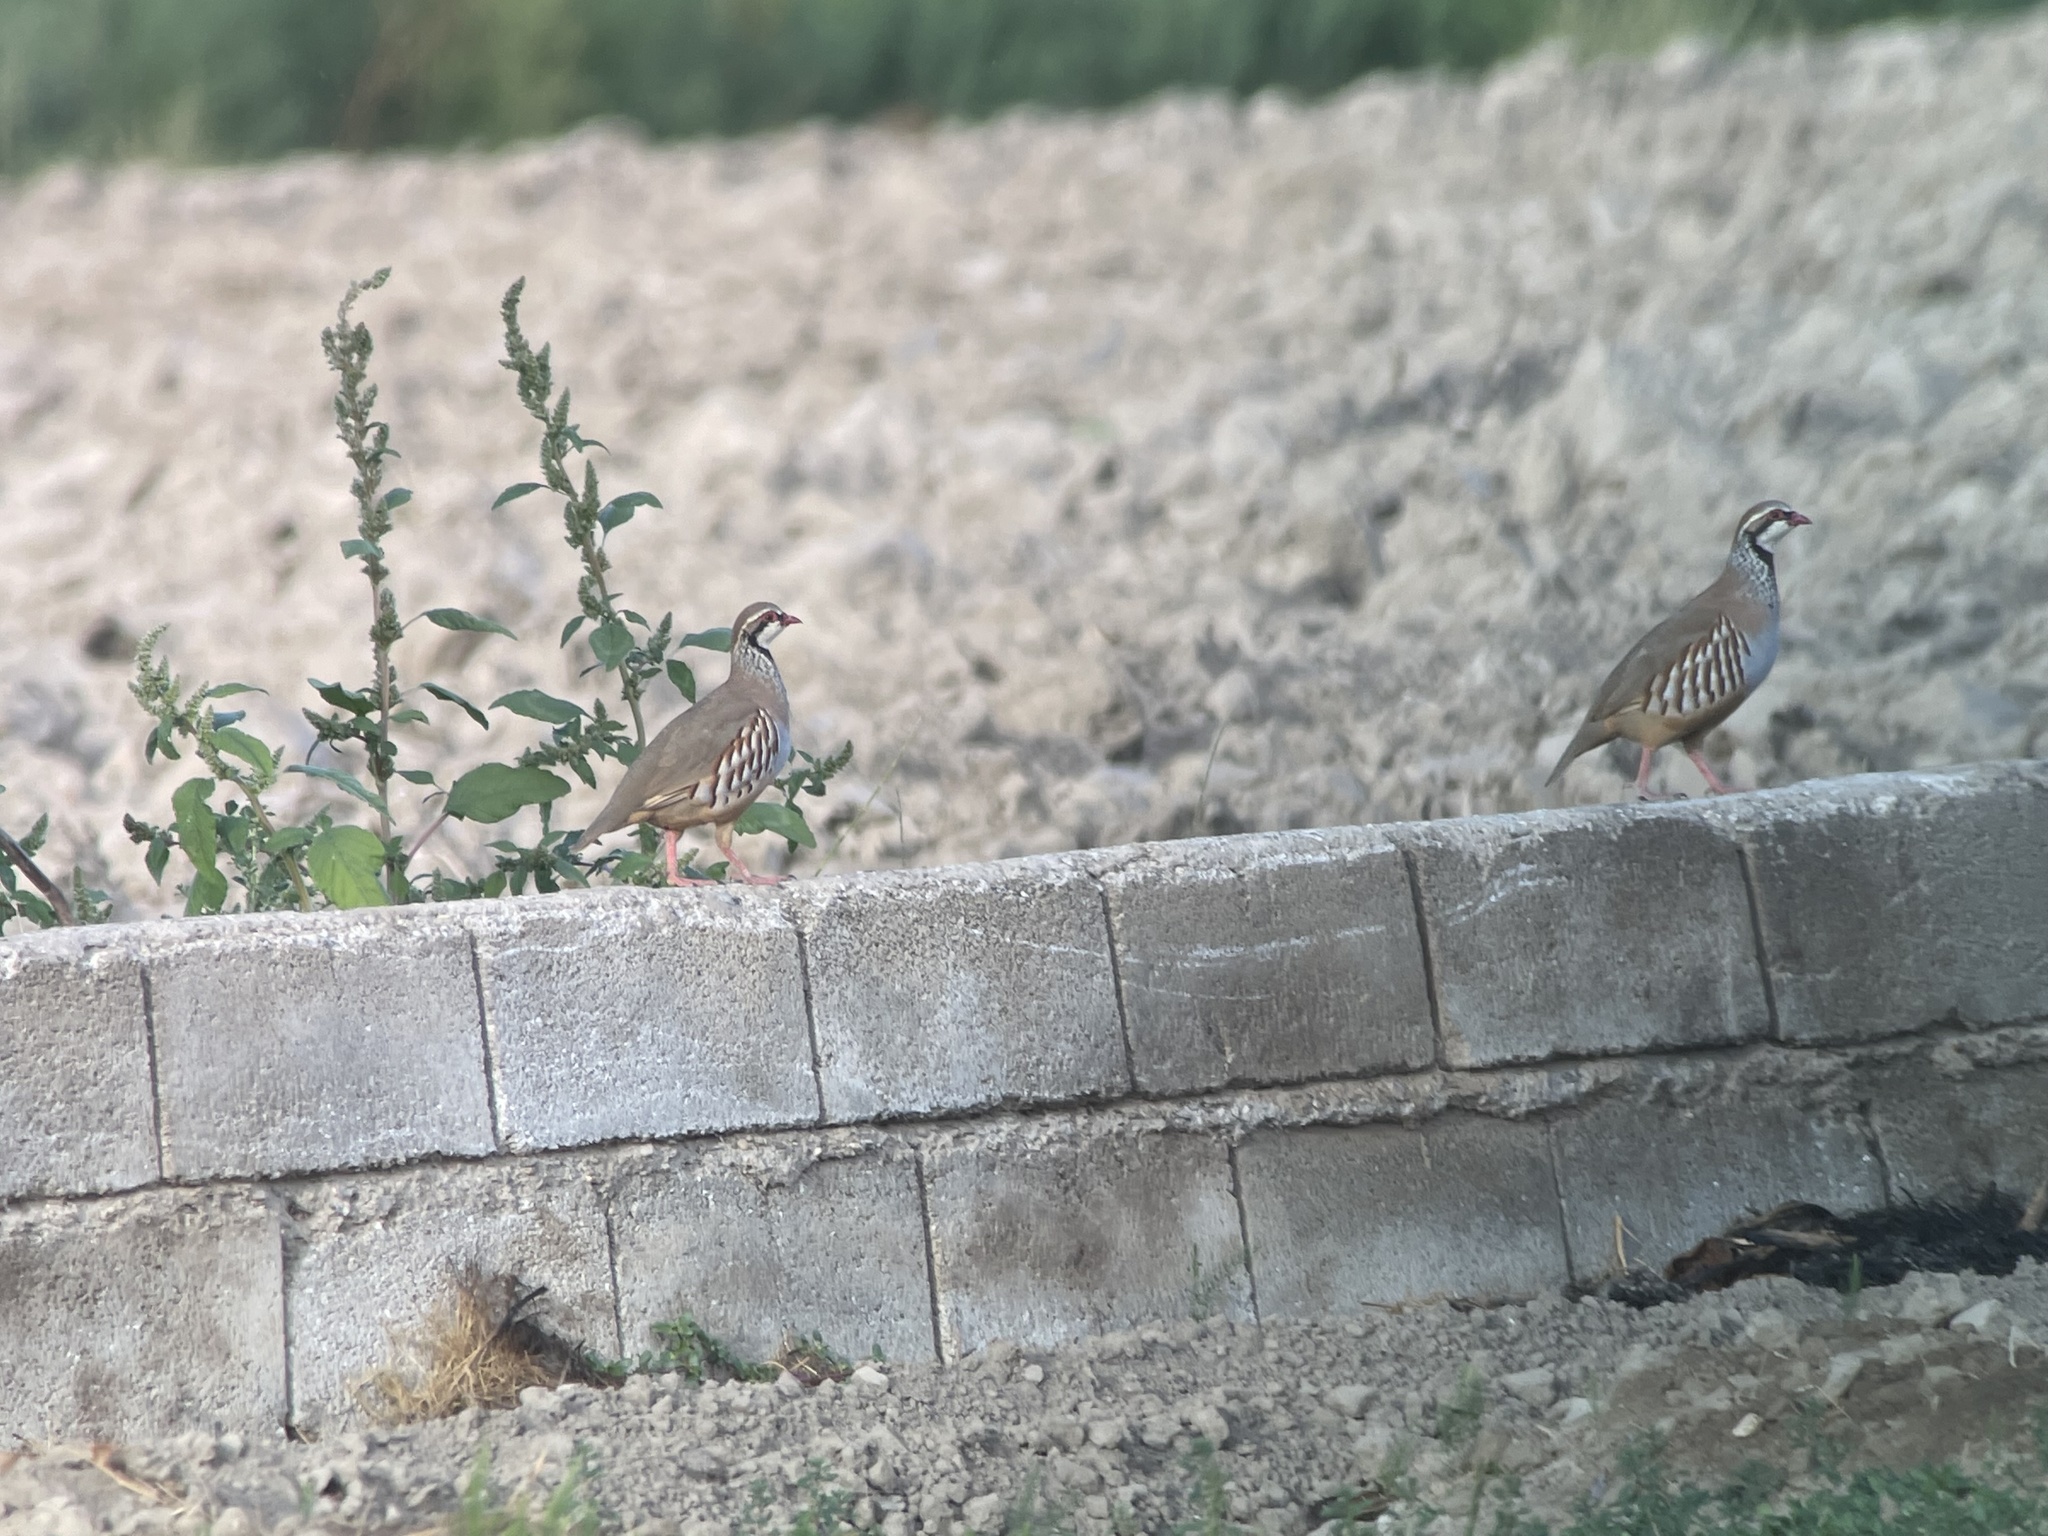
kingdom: Animalia
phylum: Chordata
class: Aves
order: Galliformes
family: Phasianidae
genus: Alectoris
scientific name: Alectoris rufa
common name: Red-legged partridge
